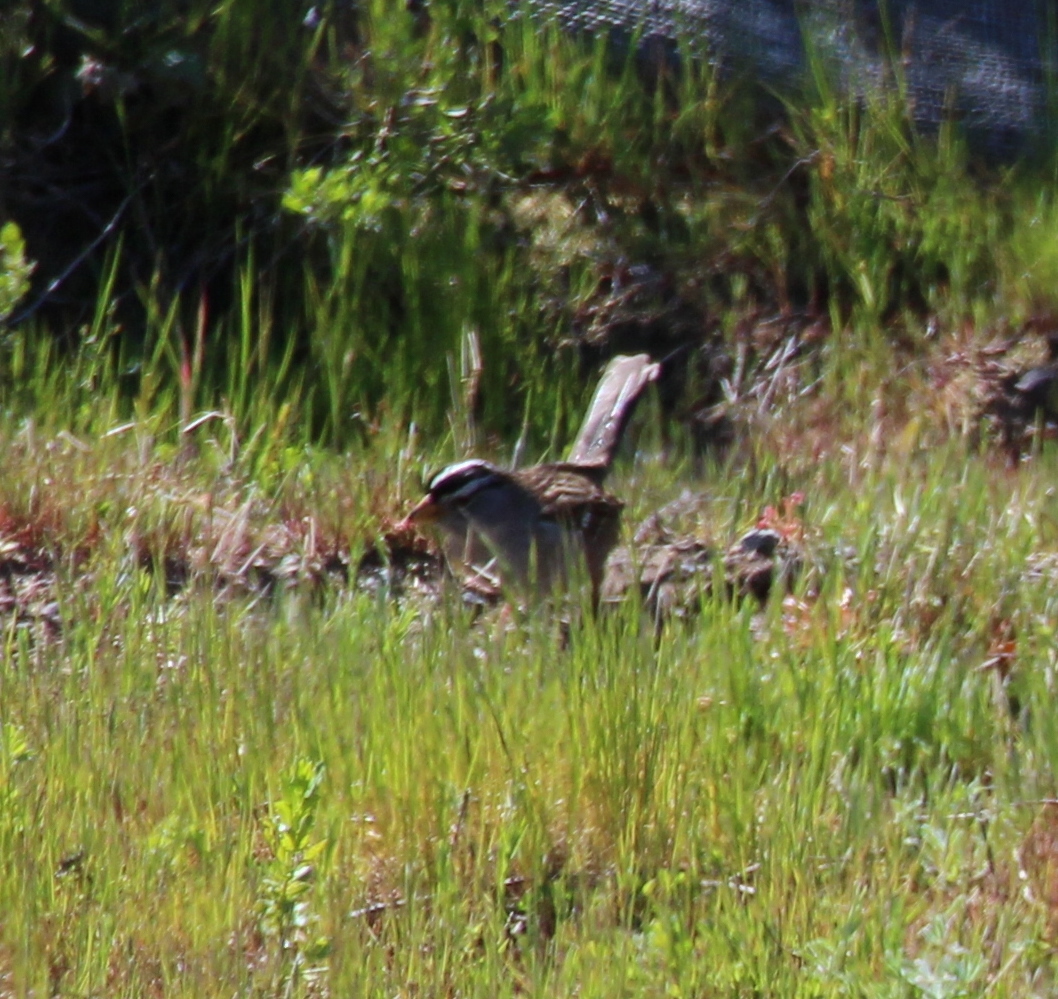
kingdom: Animalia
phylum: Chordata
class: Aves
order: Passeriformes
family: Passerellidae
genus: Zonotrichia
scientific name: Zonotrichia leucophrys
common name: White-crowned sparrow
